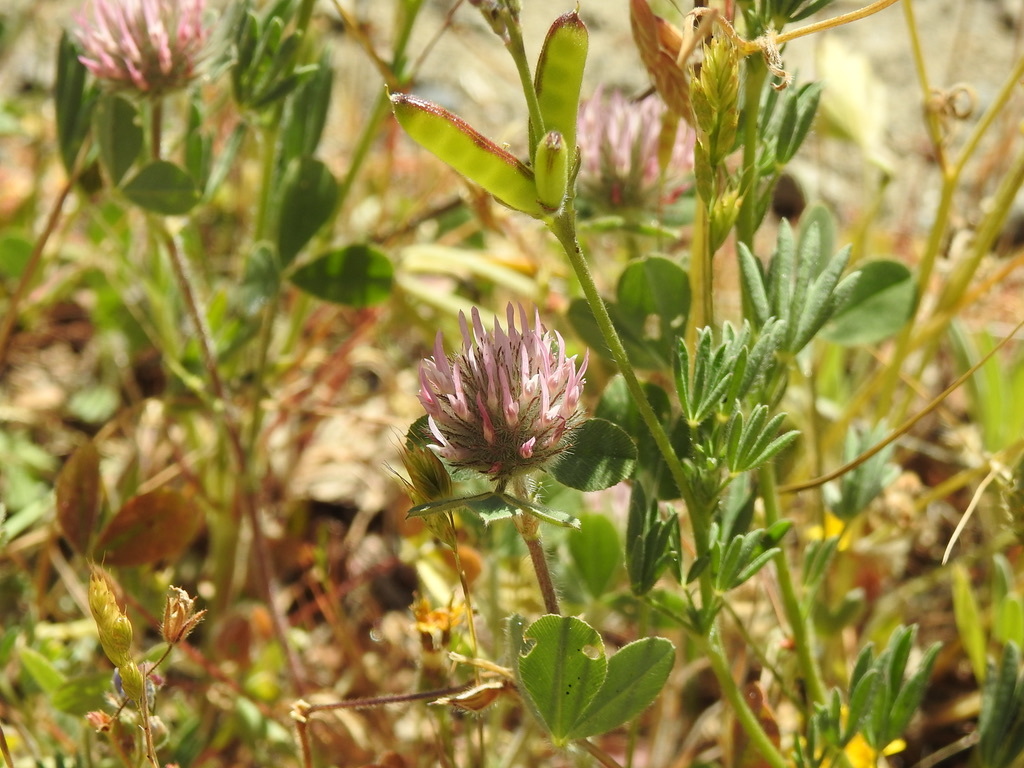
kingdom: Plantae
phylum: Tracheophyta
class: Magnoliopsida
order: Fabales
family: Fabaceae
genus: Trifolium
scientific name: Trifolium hirtum
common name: Rose clover
